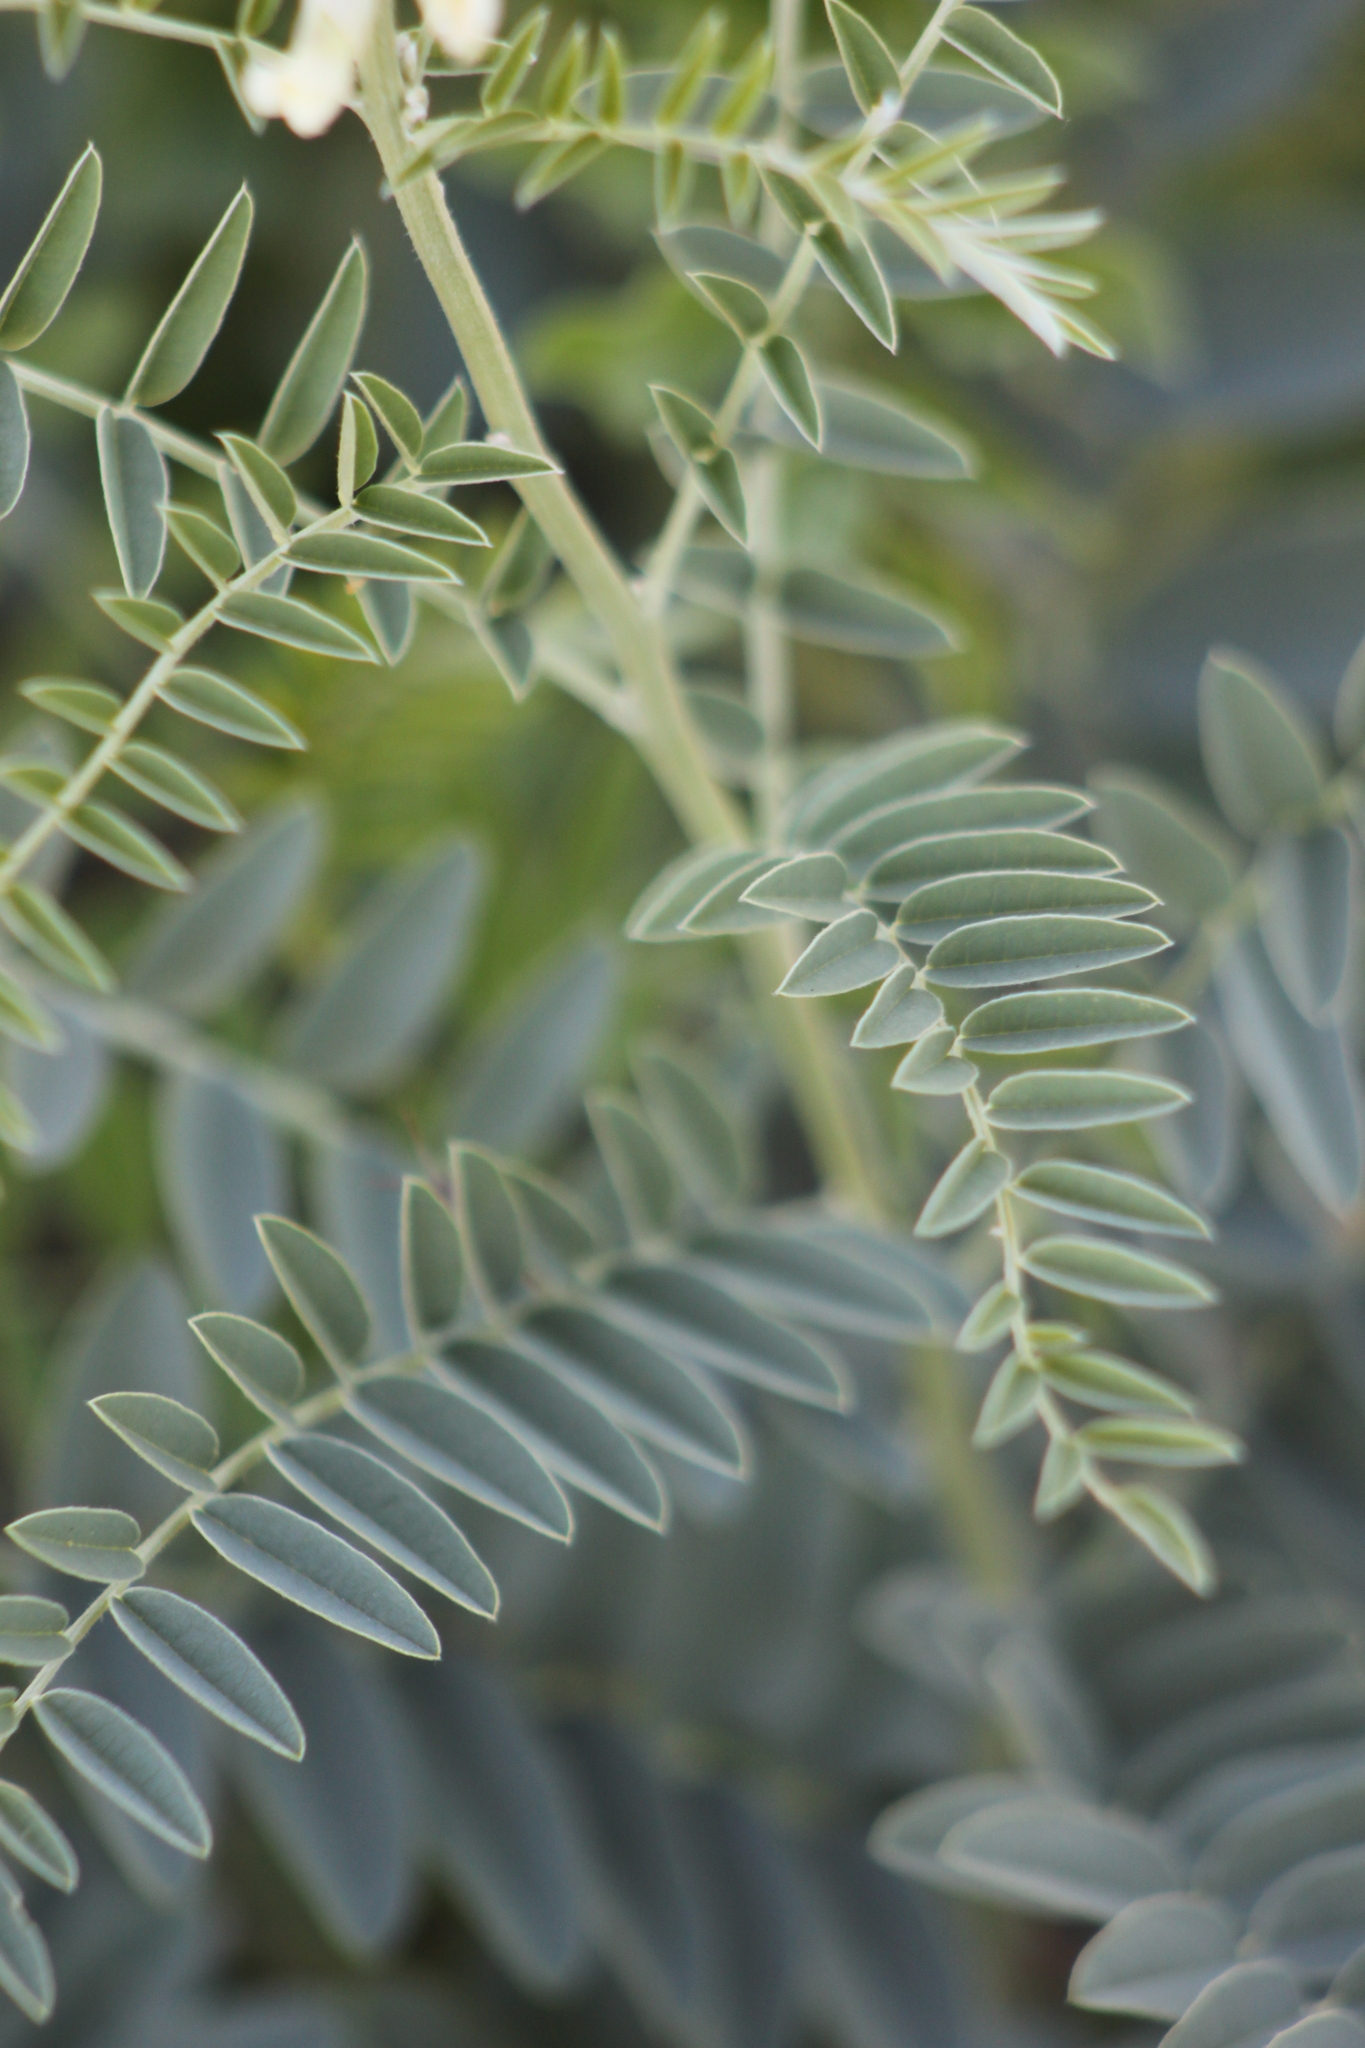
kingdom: Plantae
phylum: Tracheophyta
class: Magnoliopsida
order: Fabales
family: Fabaceae
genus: Sophora
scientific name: Sophora alopecuroides
